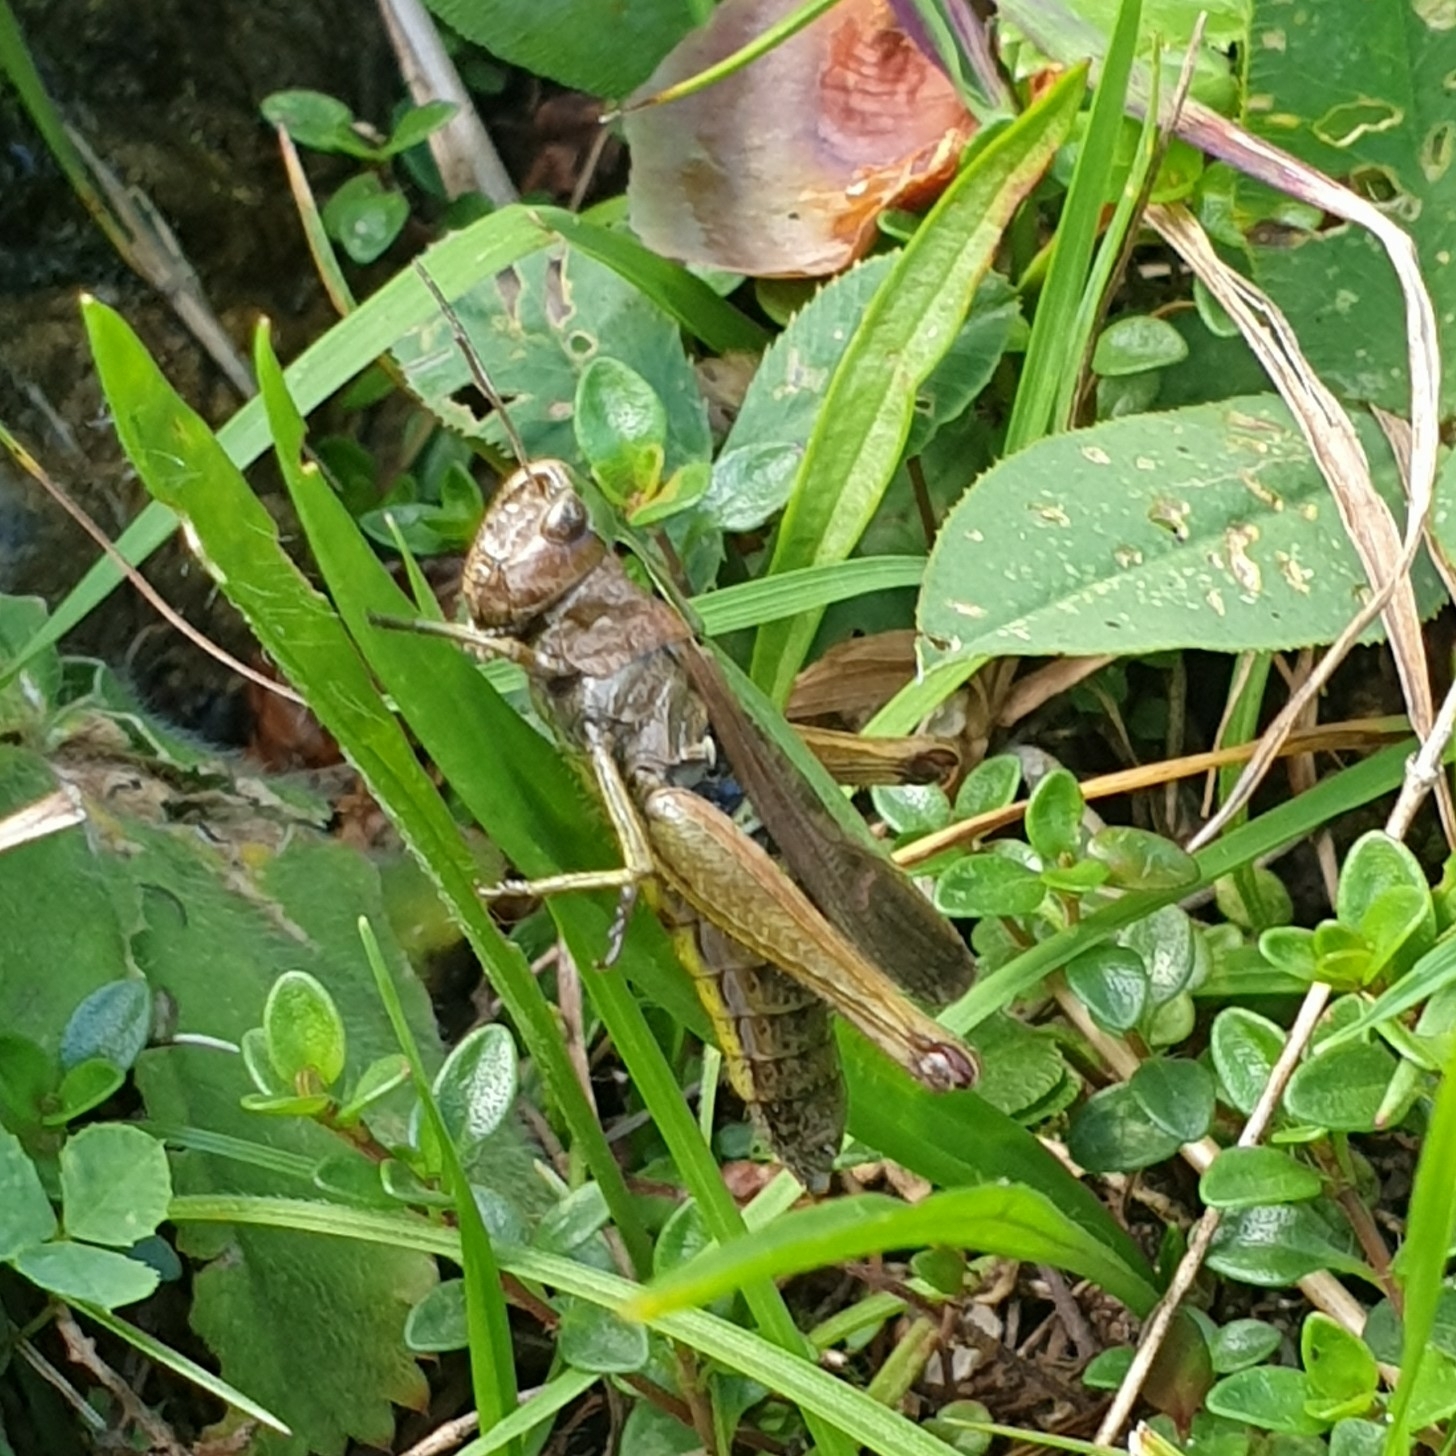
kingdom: Animalia
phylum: Arthropoda
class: Insecta
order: Orthoptera
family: Acrididae
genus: Omocestus
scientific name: Omocestus viridulus
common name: Common green grasshopper
